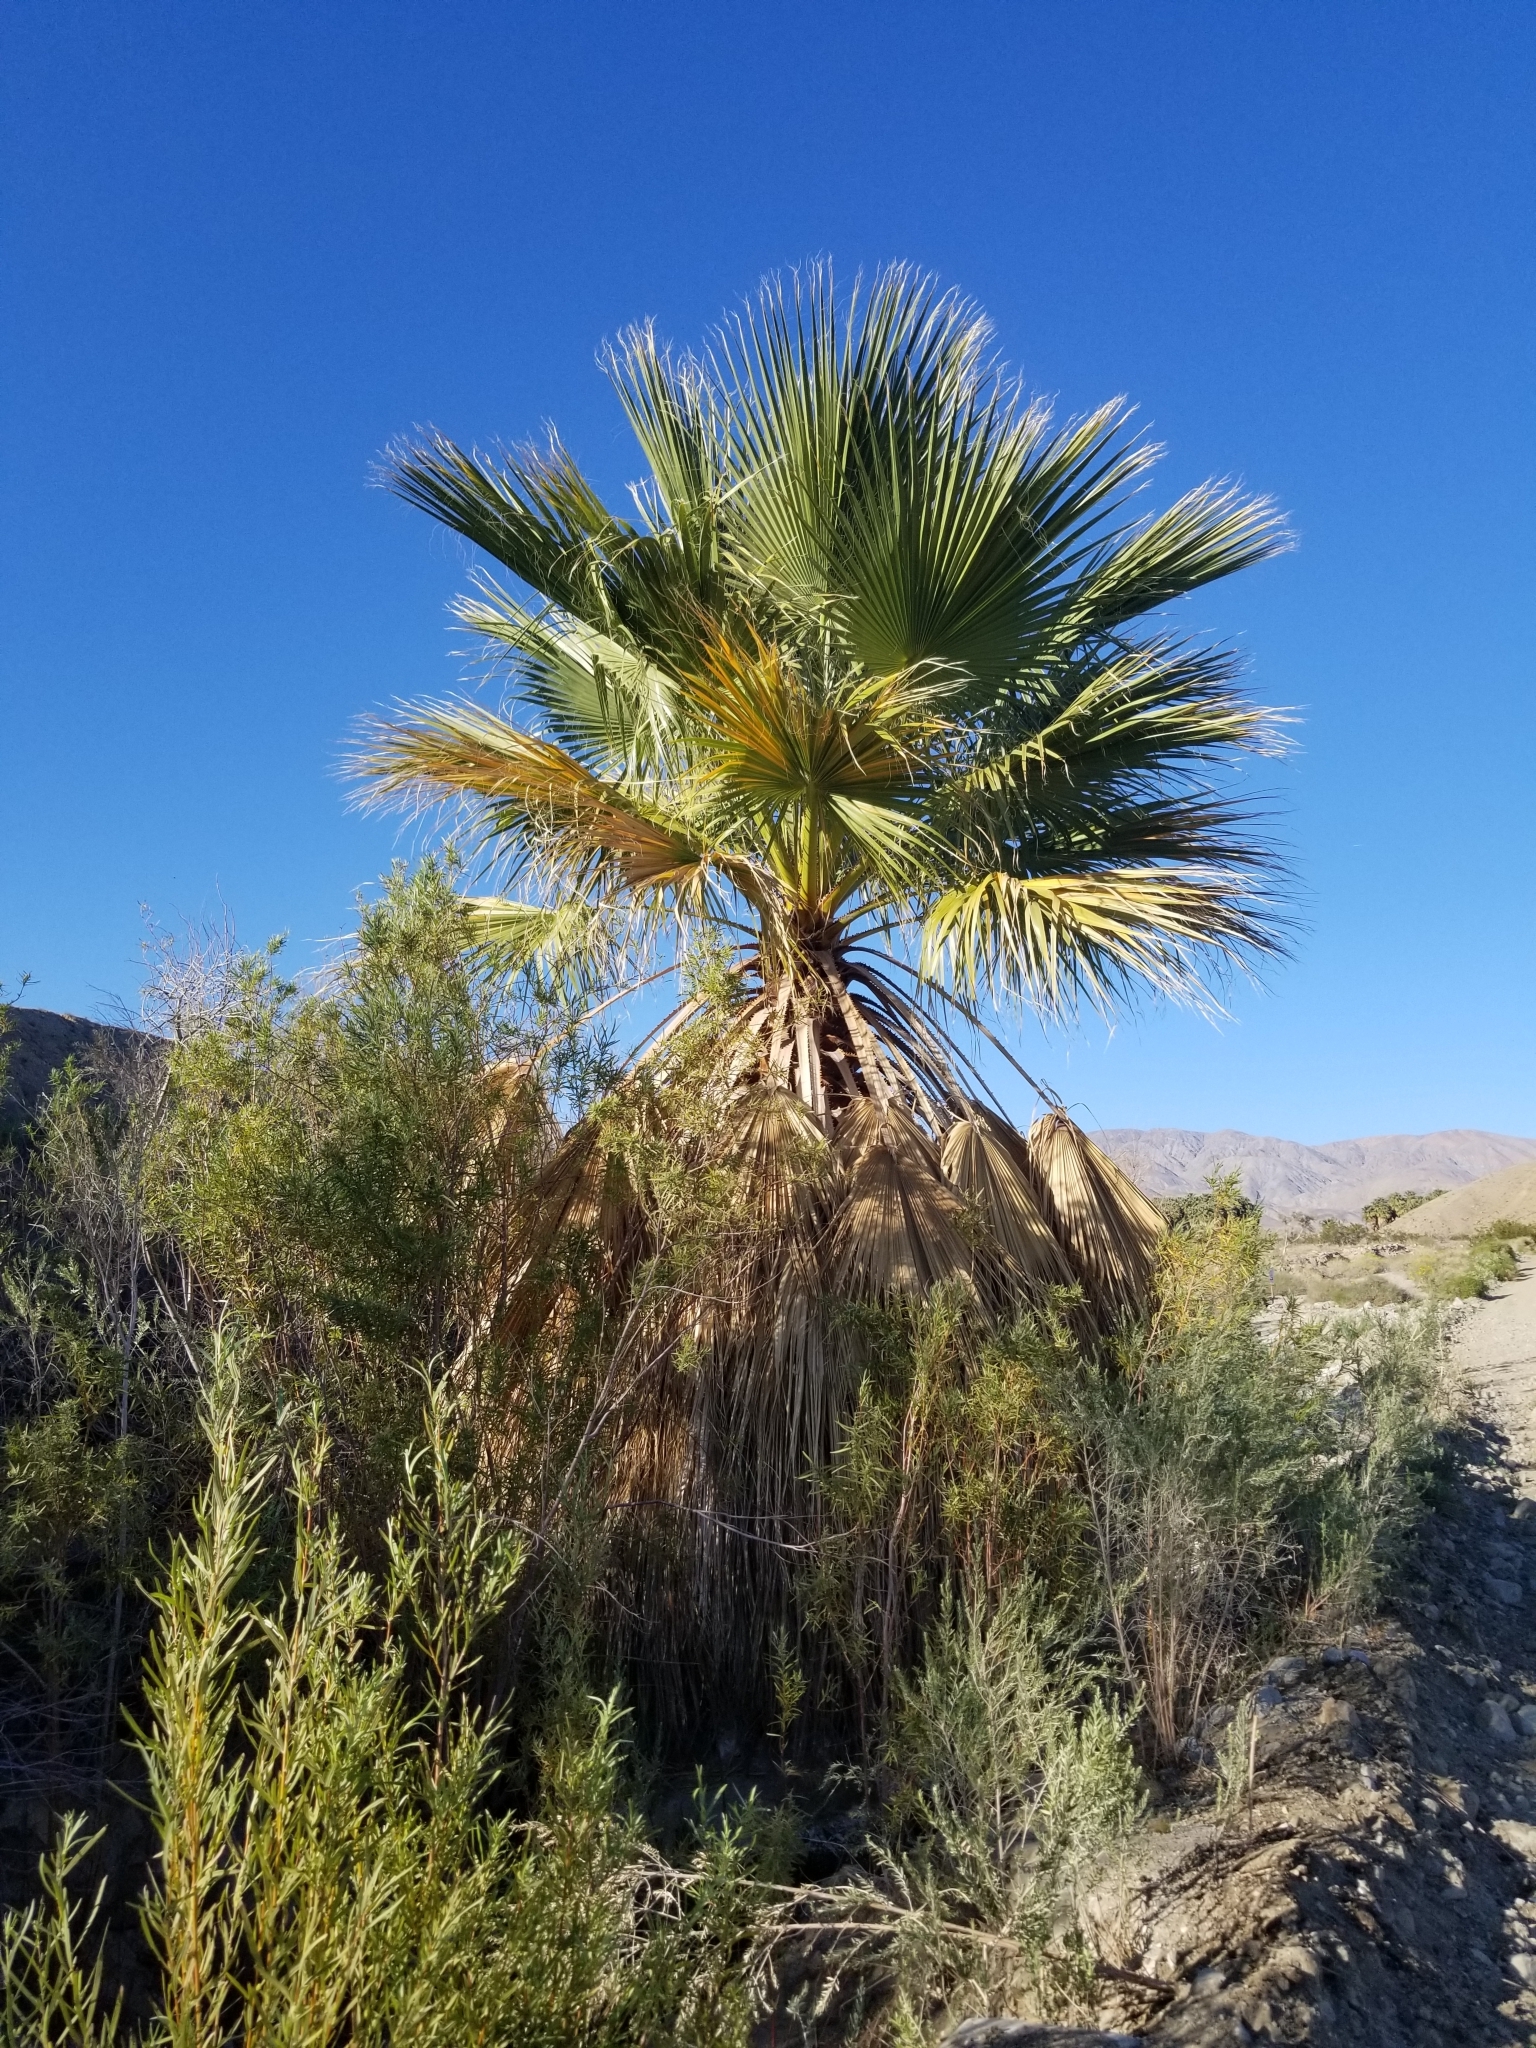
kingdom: Plantae
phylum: Tracheophyta
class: Liliopsida
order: Arecales
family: Arecaceae
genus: Washingtonia
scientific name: Washingtonia filifera
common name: California fan palm
